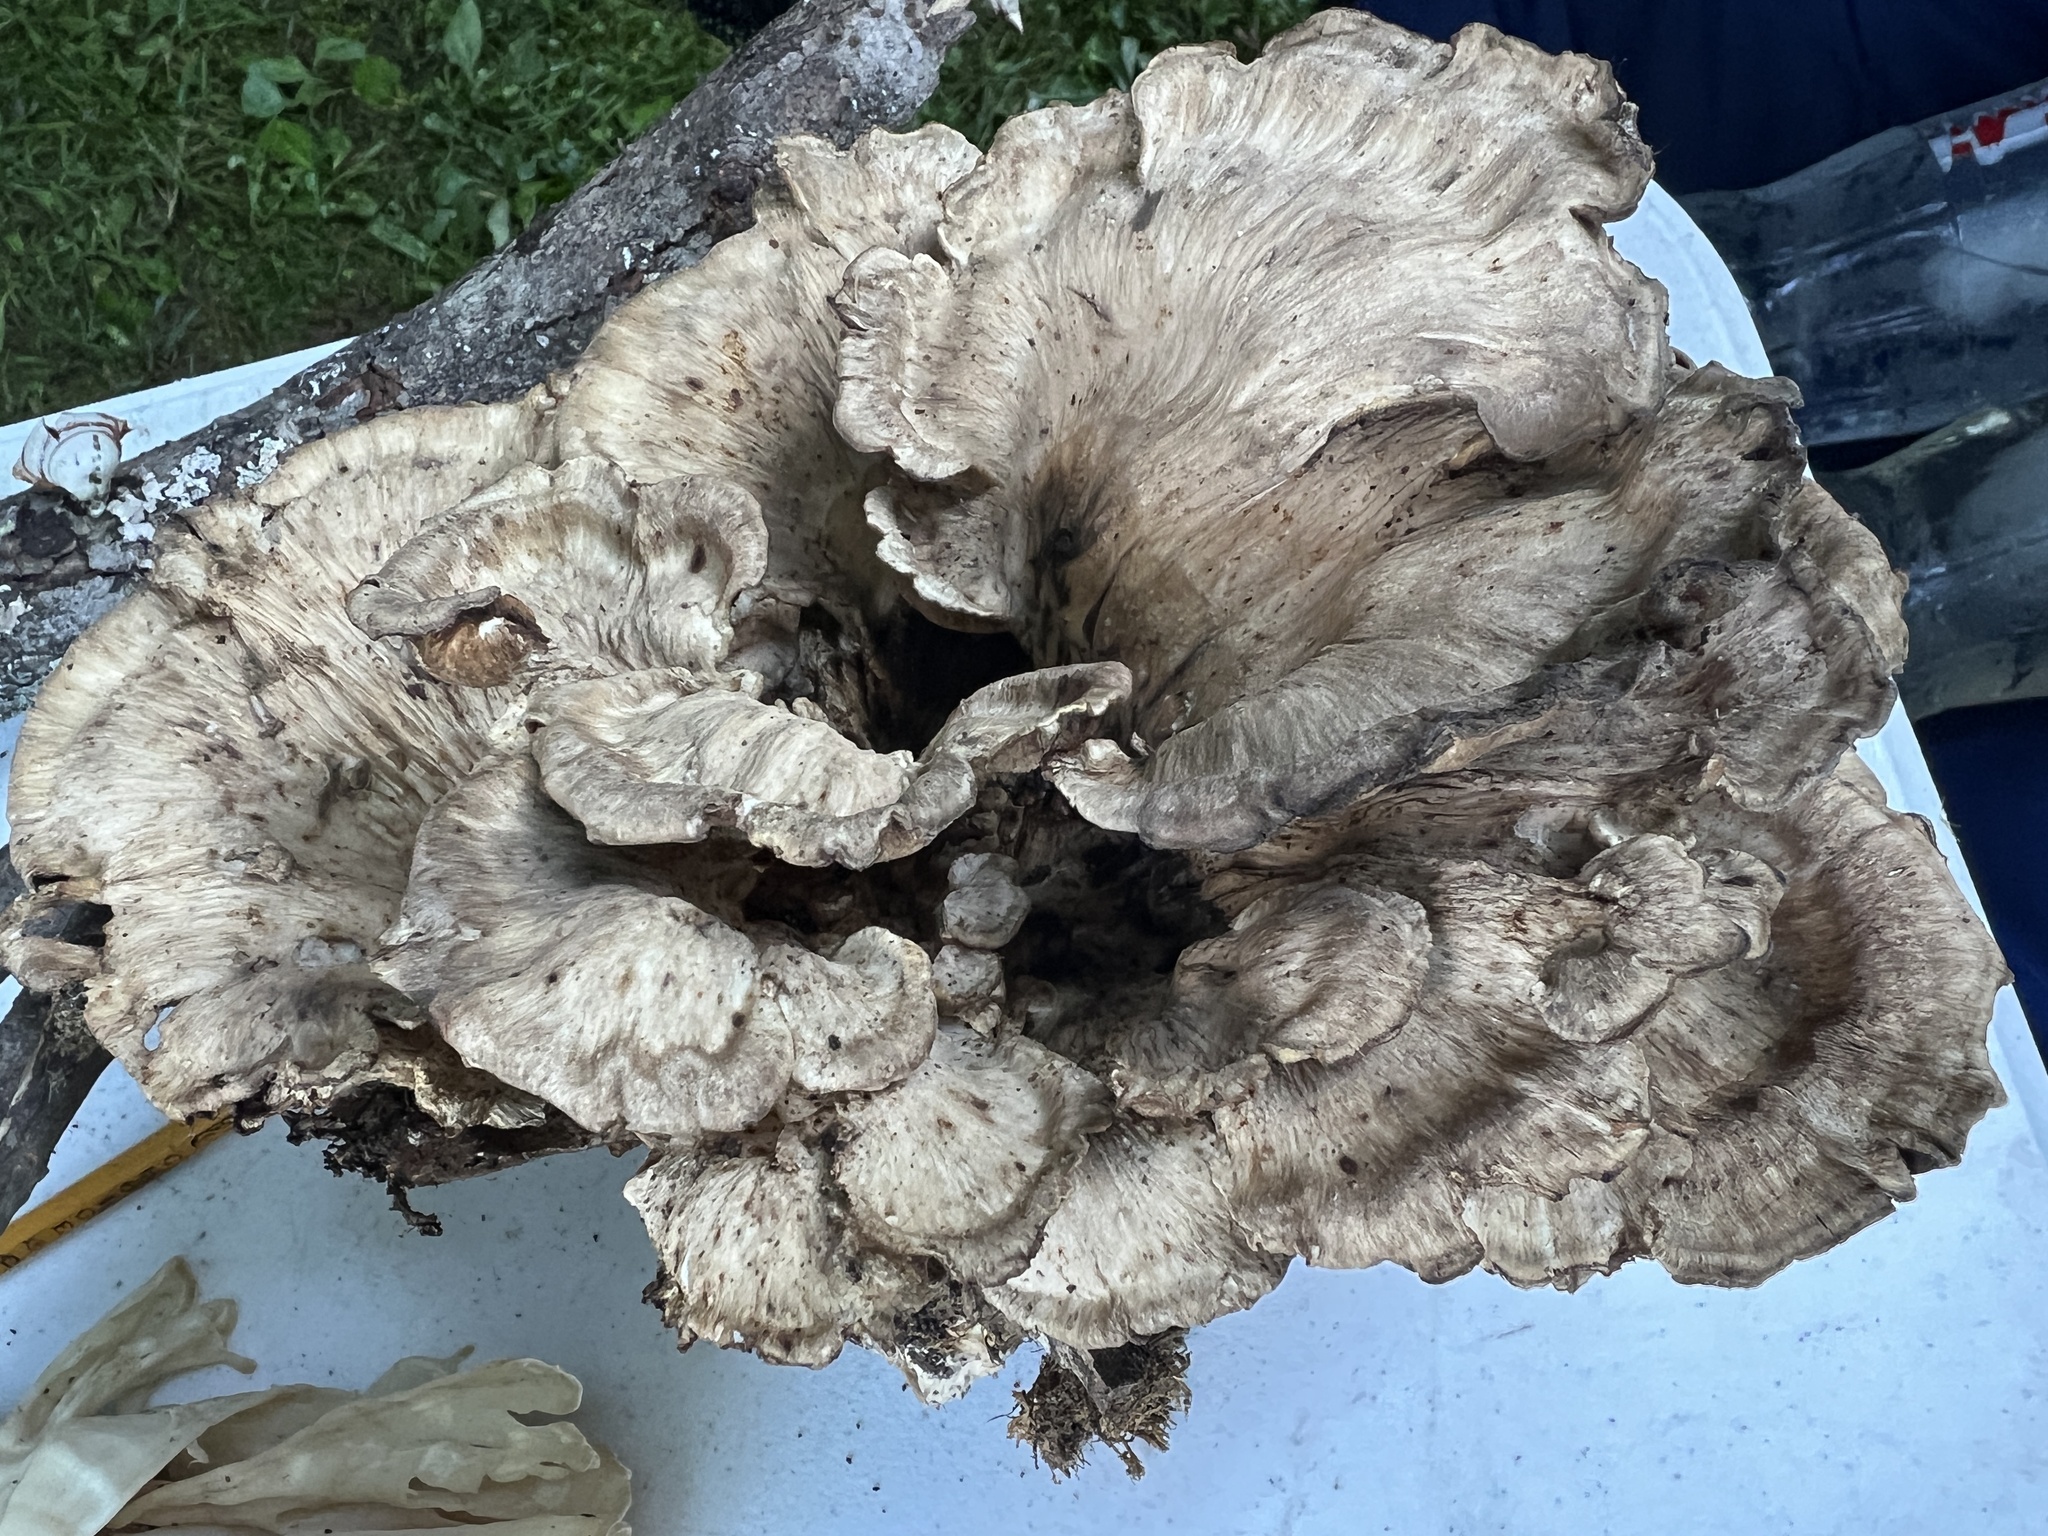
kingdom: Fungi
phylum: Basidiomycota
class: Agaricomycetes
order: Polyporales
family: Meripilaceae
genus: Meripilus
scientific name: Meripilus sumstinei
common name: Black-staining polypore
